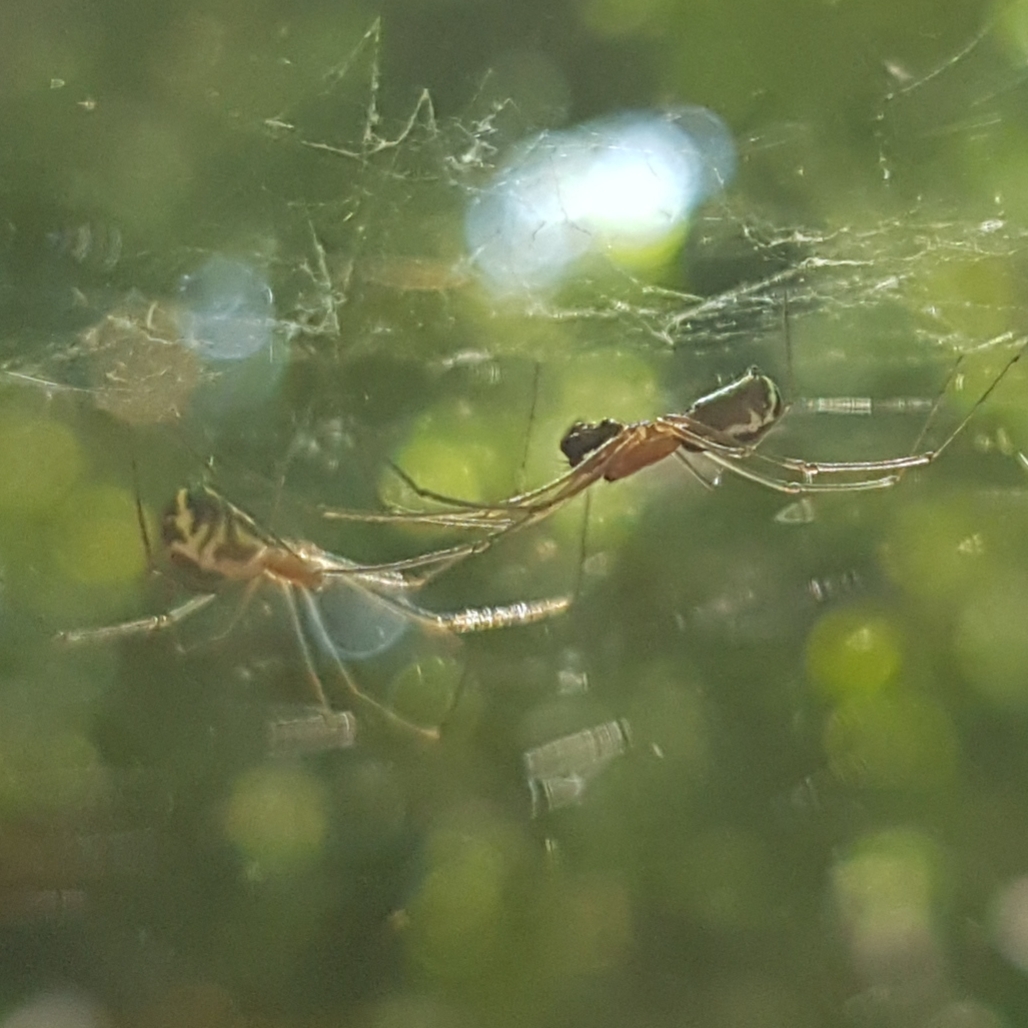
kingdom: Animalia
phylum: Arthropoda
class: Arachnida
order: Araneae
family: Linyphiidae
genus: Neriene
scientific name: Neriene radiata
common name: Filmy dome spider
